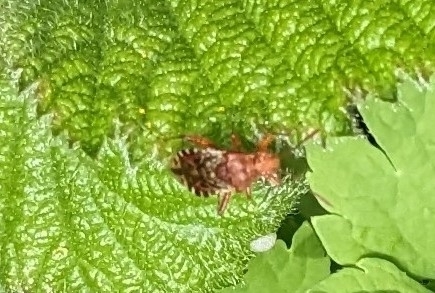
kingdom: Animalia
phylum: Arthropoda
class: Insecta
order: Hemiptera
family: Rhopalidae
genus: Rhopalus
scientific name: Rhopalus subrufus
